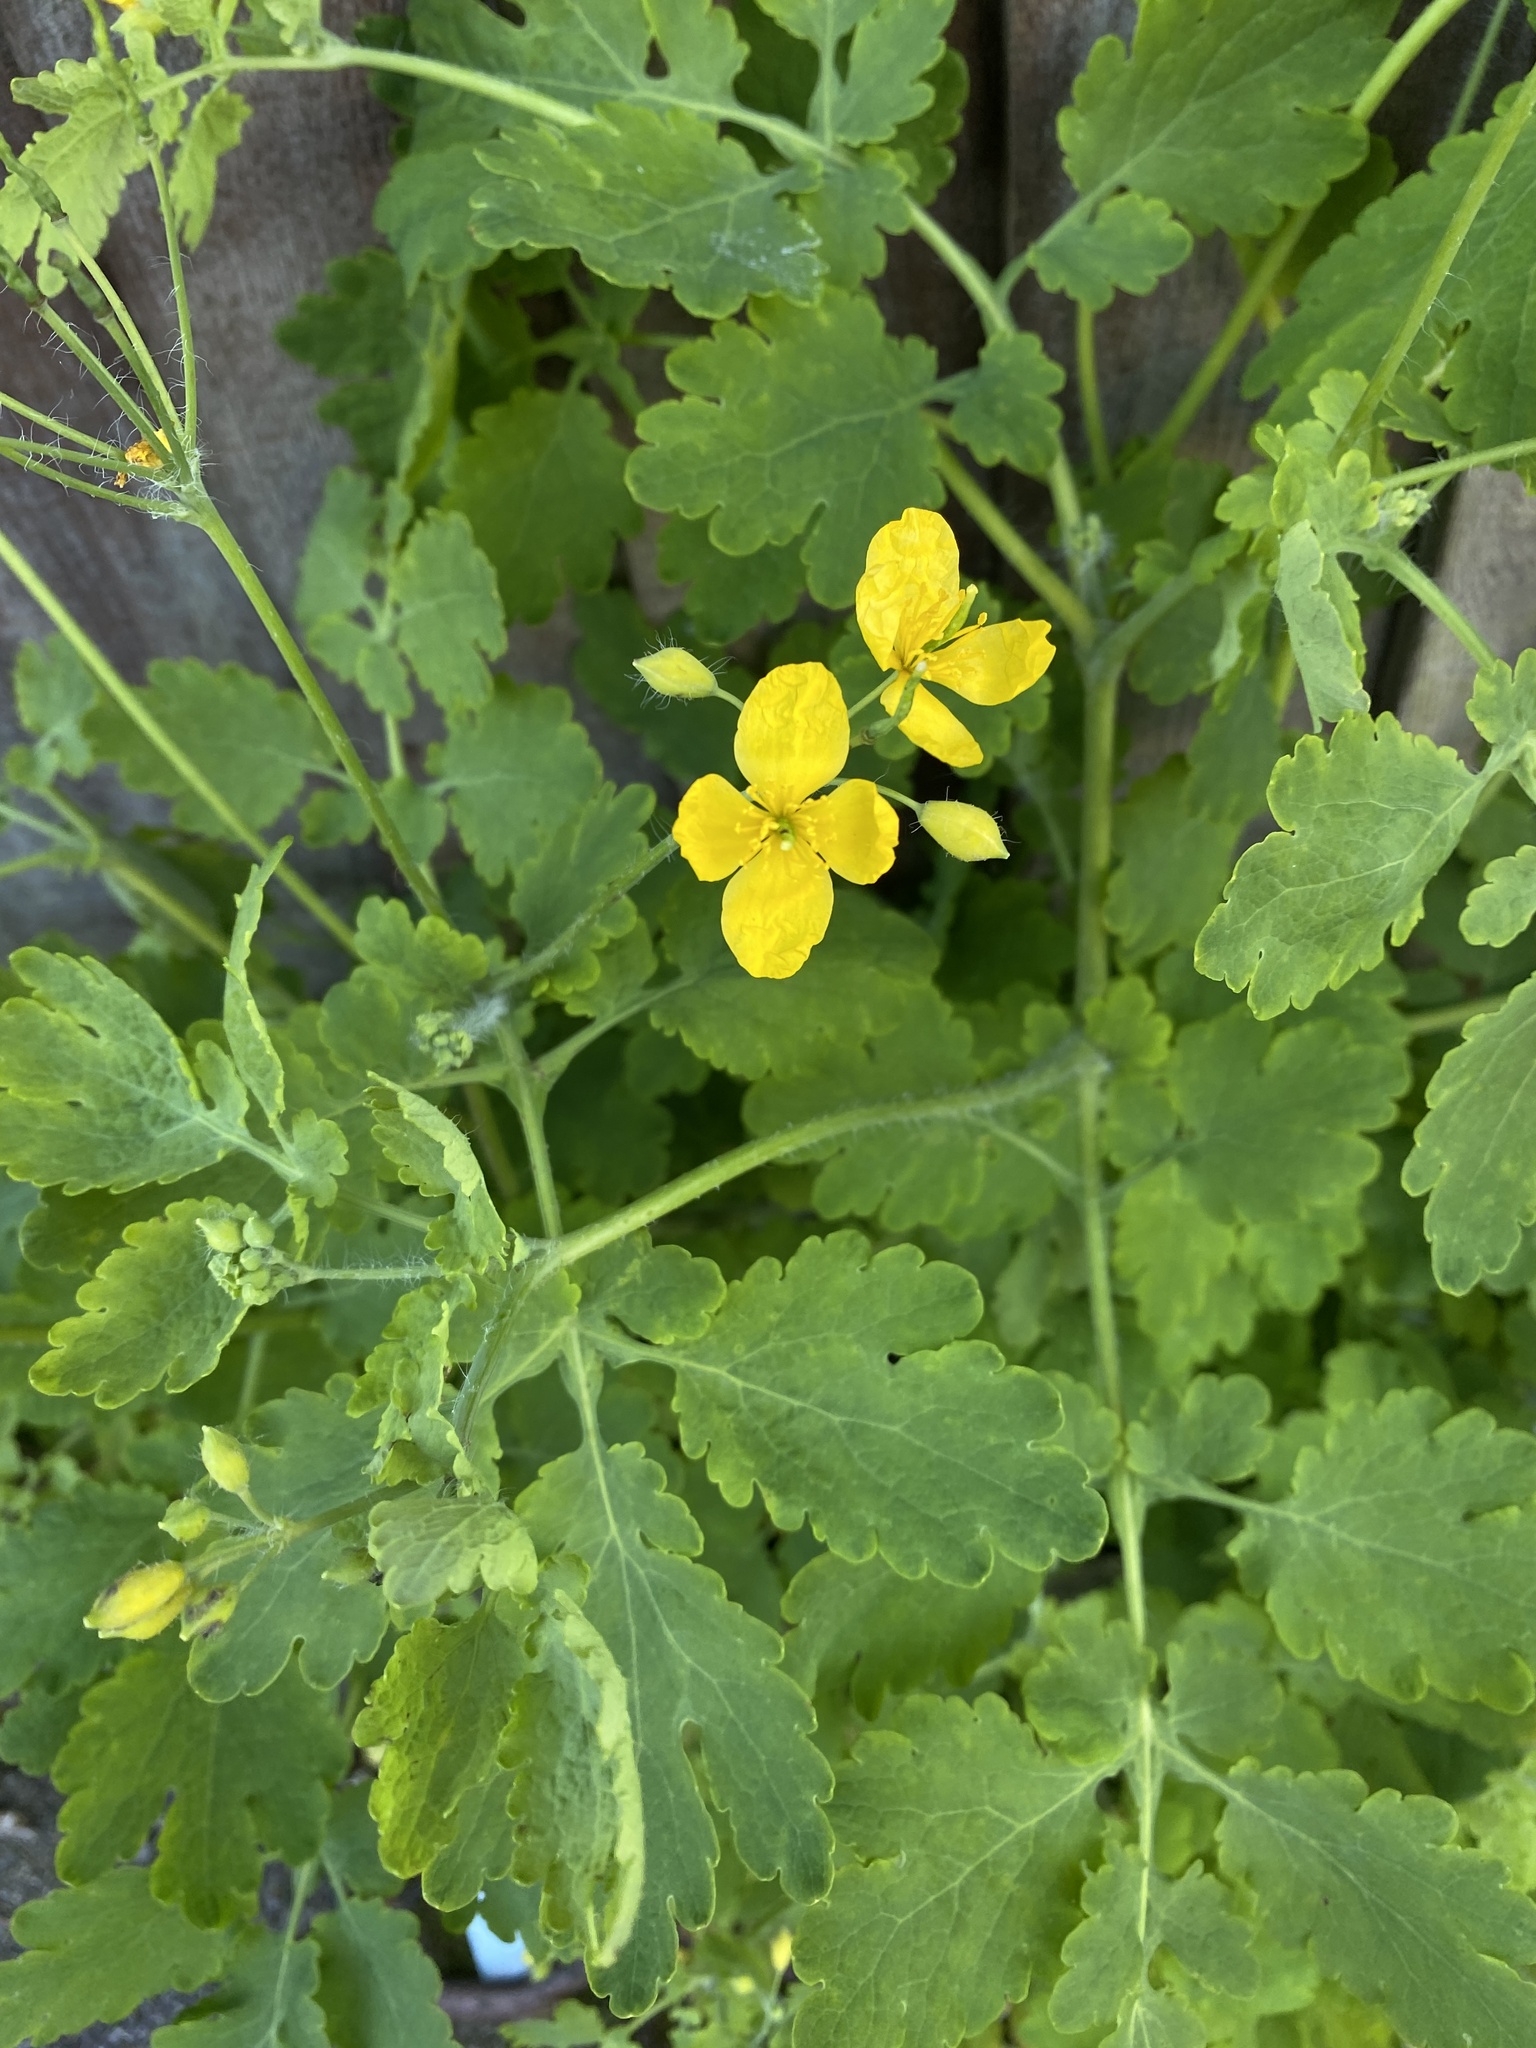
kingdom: Plantae
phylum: Tracheophyta
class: Magnoliopsida
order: Ranunculales
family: Papaveraceae
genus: Chelidonium
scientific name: Chelidonium majus
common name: Greater celandine
